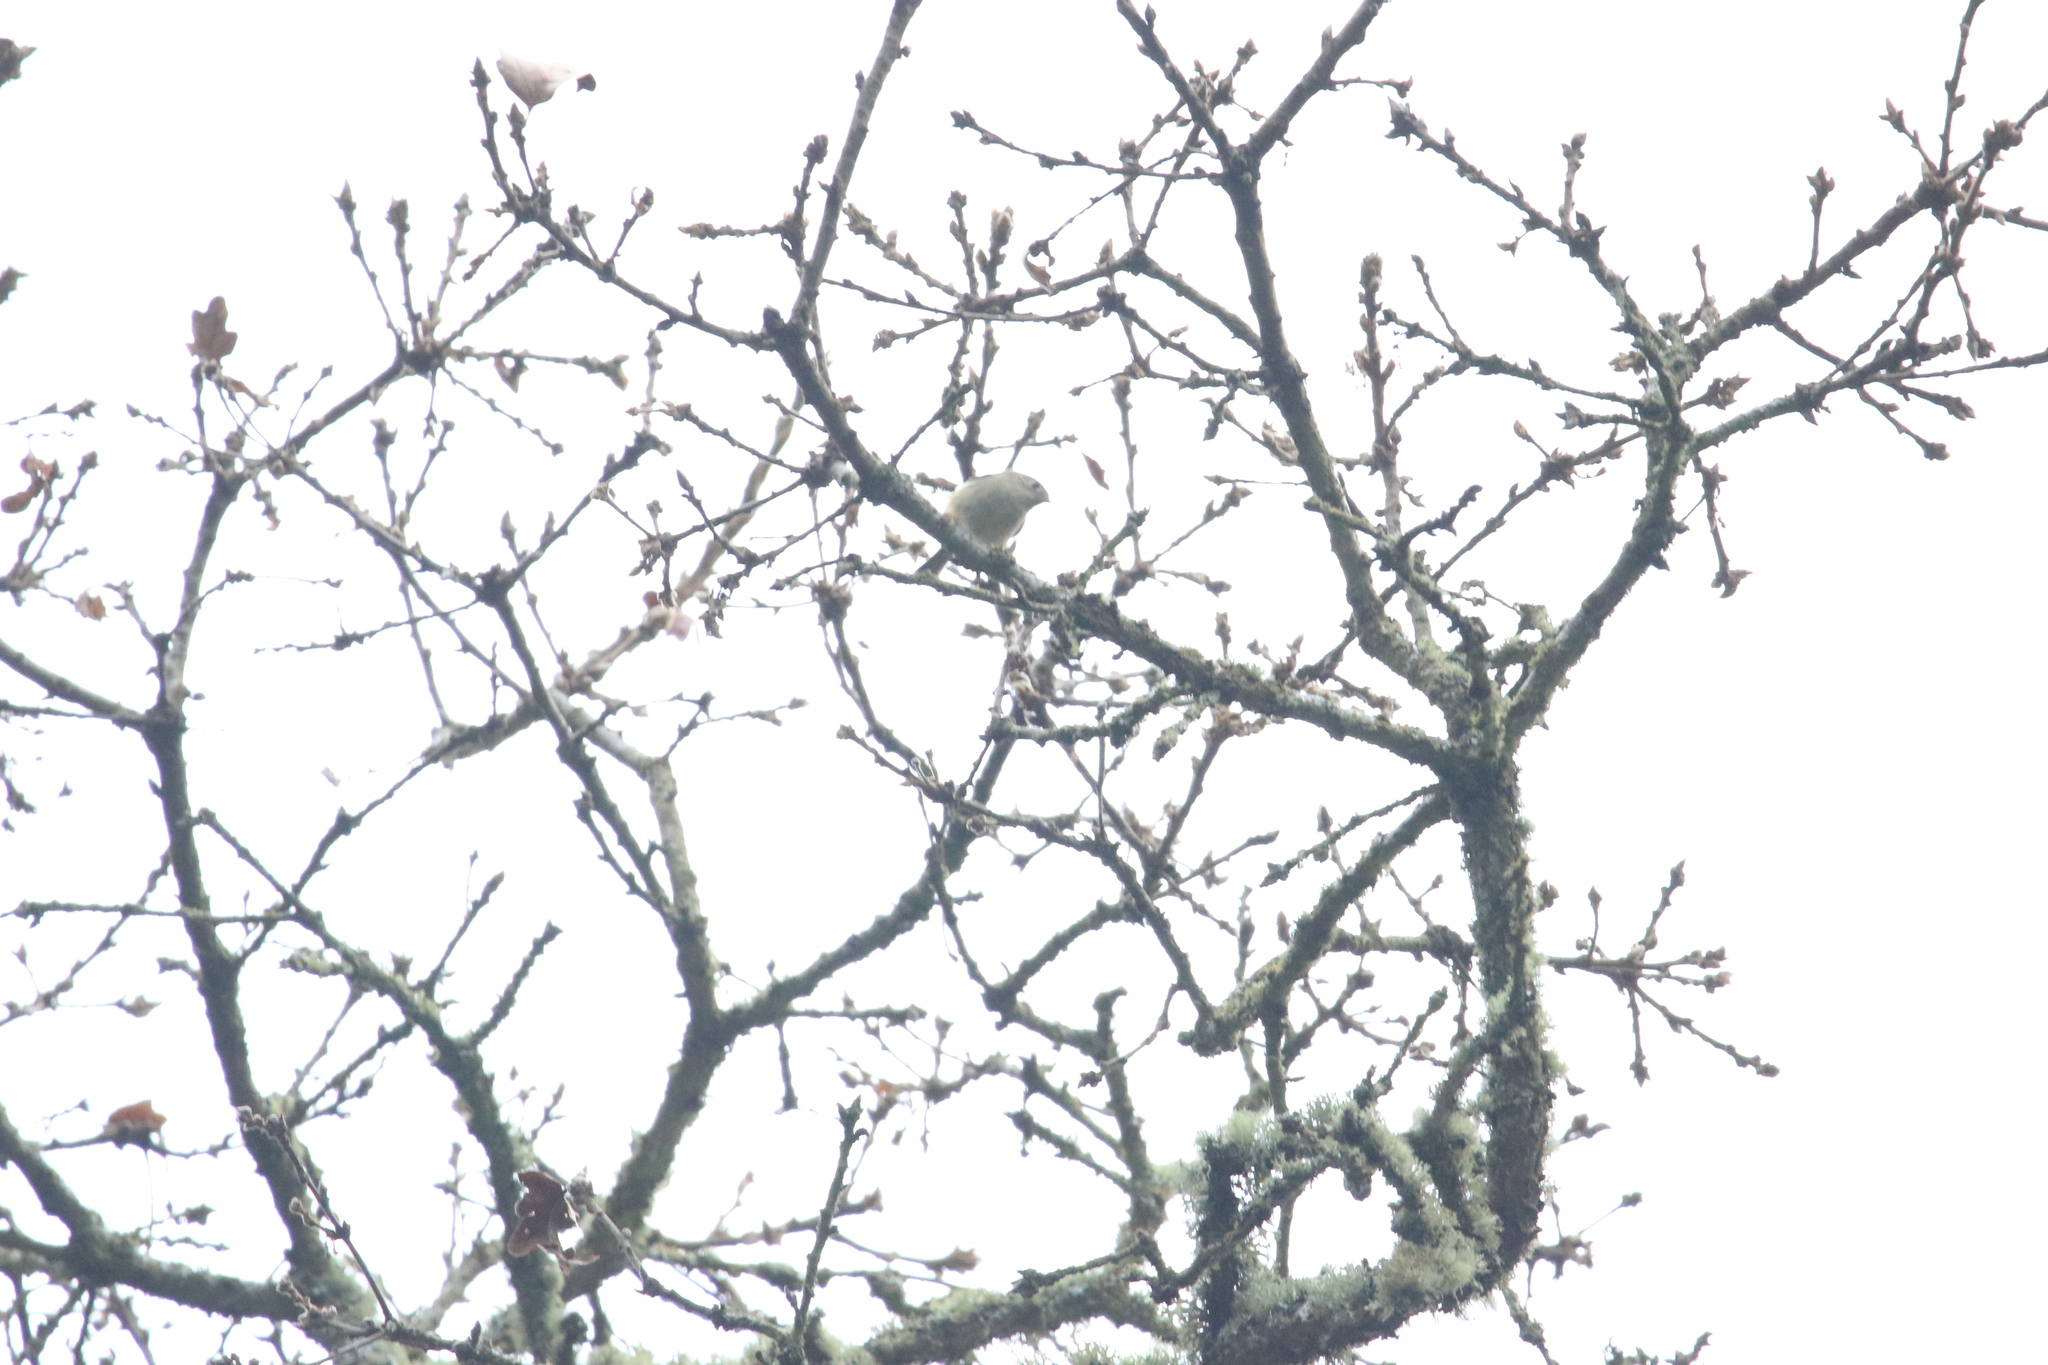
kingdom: Animalia
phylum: Chordata
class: Aves
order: Passeriformes
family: Regulidae
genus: Regulus
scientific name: Regulus calendula
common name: Ruby-crowned kinglet
